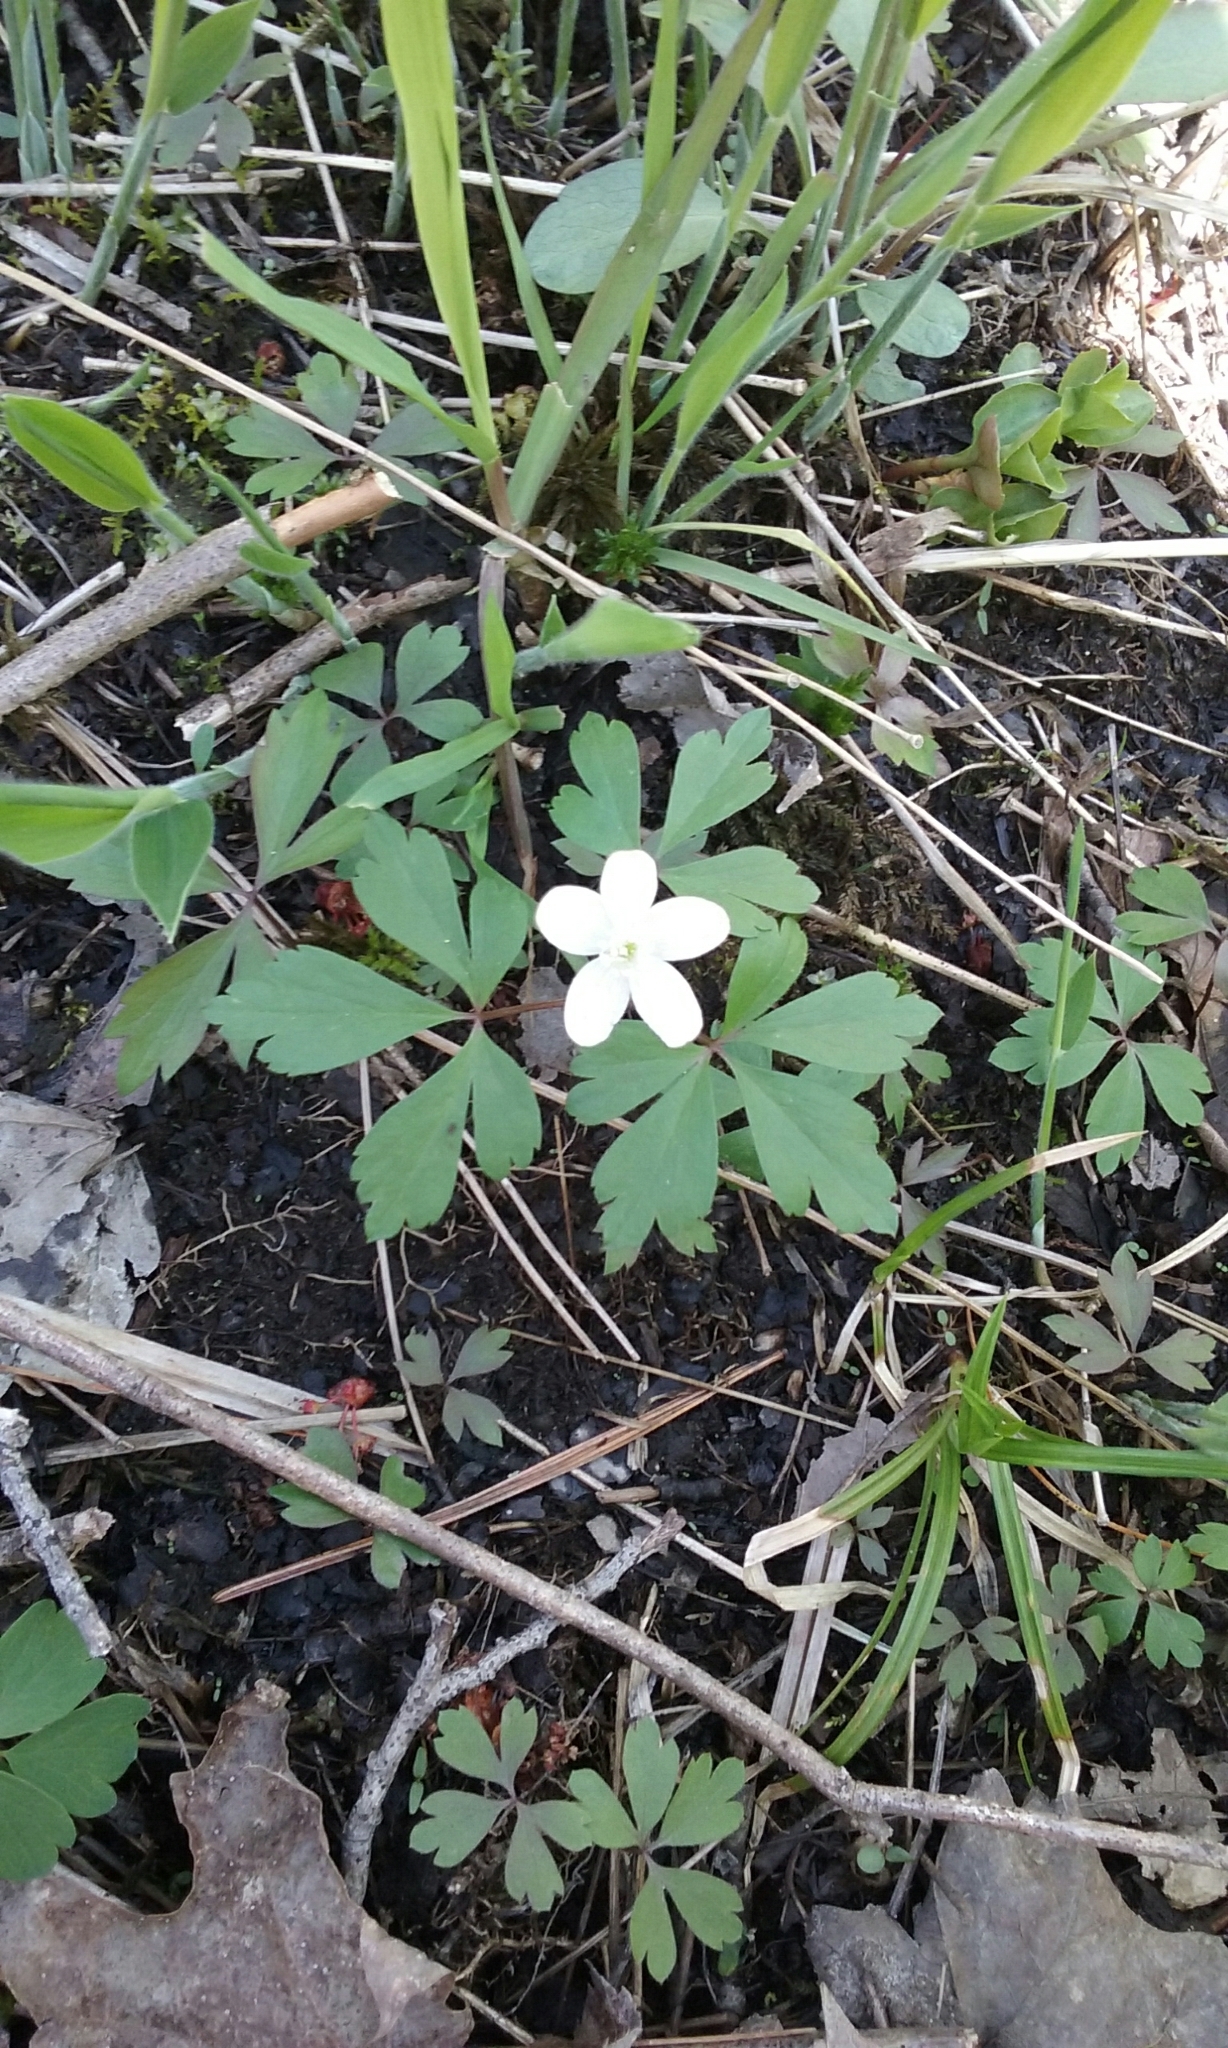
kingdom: Plantae
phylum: Tracheophyta
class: Magnoliopsida
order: Ranunculales
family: Ranunculaceae
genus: Anemone
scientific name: Anemone quinquefolia
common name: Wood anemone
